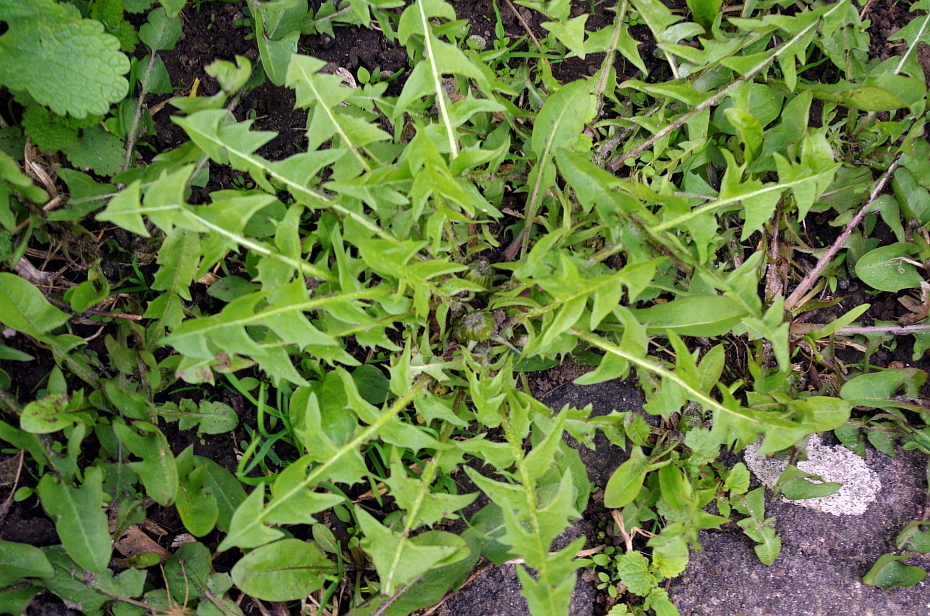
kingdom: Plantae
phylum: Tracheophyta
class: Magnoliopsida
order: Asterales
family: Asteraceae
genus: Taraxacum
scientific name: Taraxacum officinale
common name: Common dandelion
